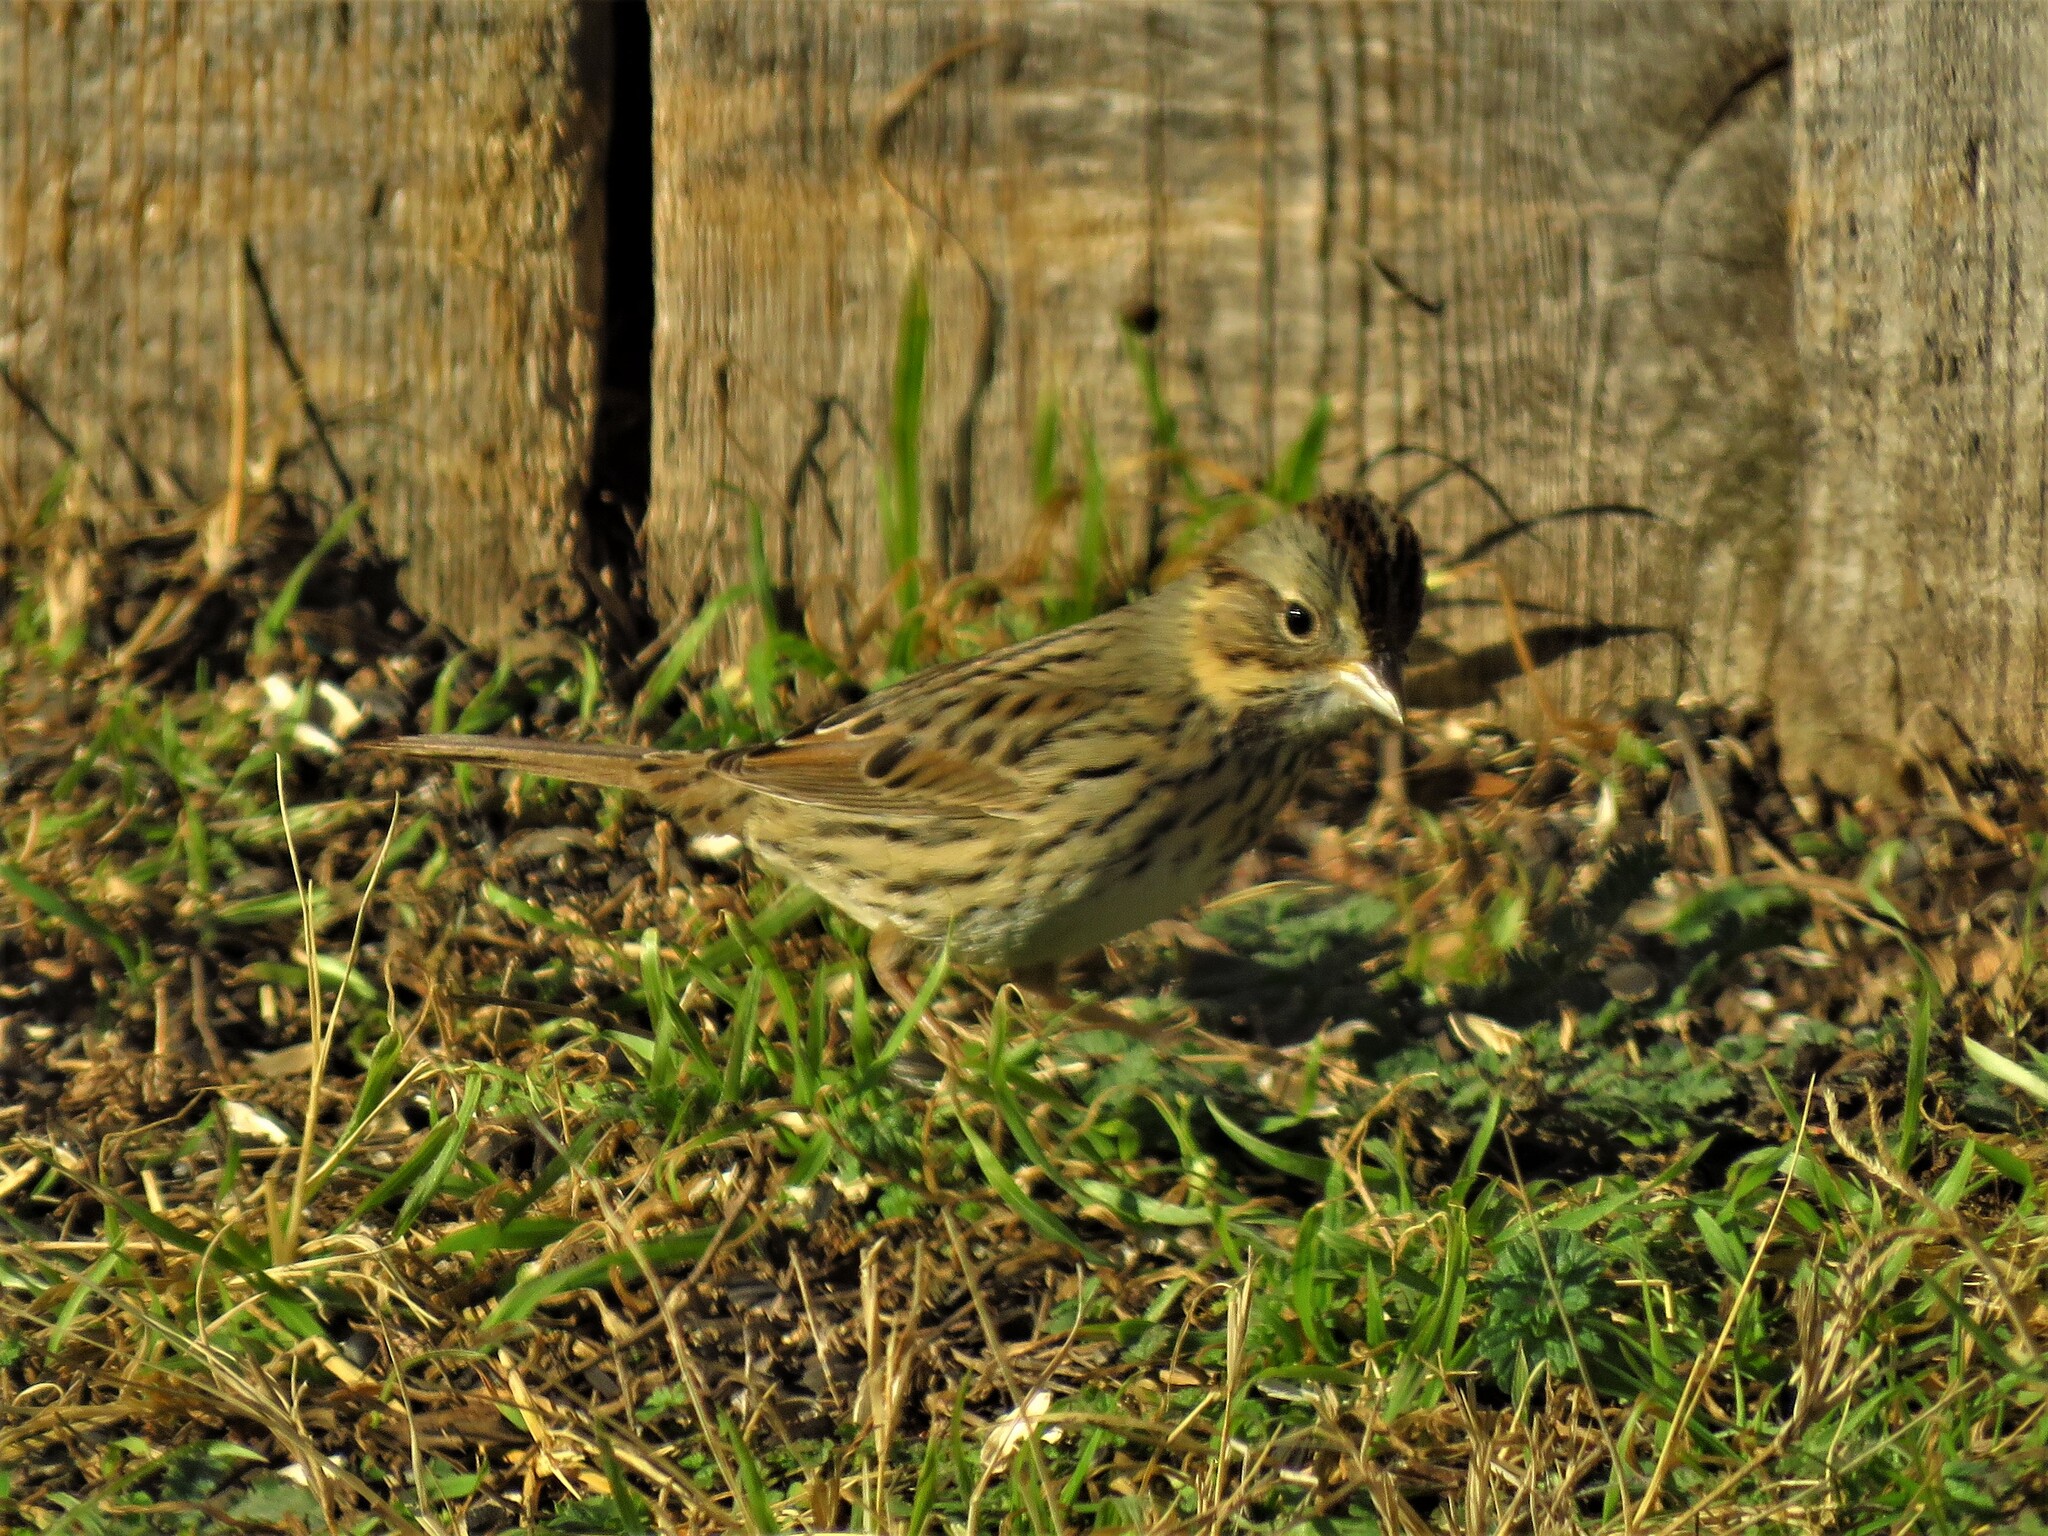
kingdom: Animalia
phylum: Chordata
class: Aves
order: Passeriformes
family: Passerellidae
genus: Melospiza
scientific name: Melospiza lincolnii
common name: Lincoln's sparrow
